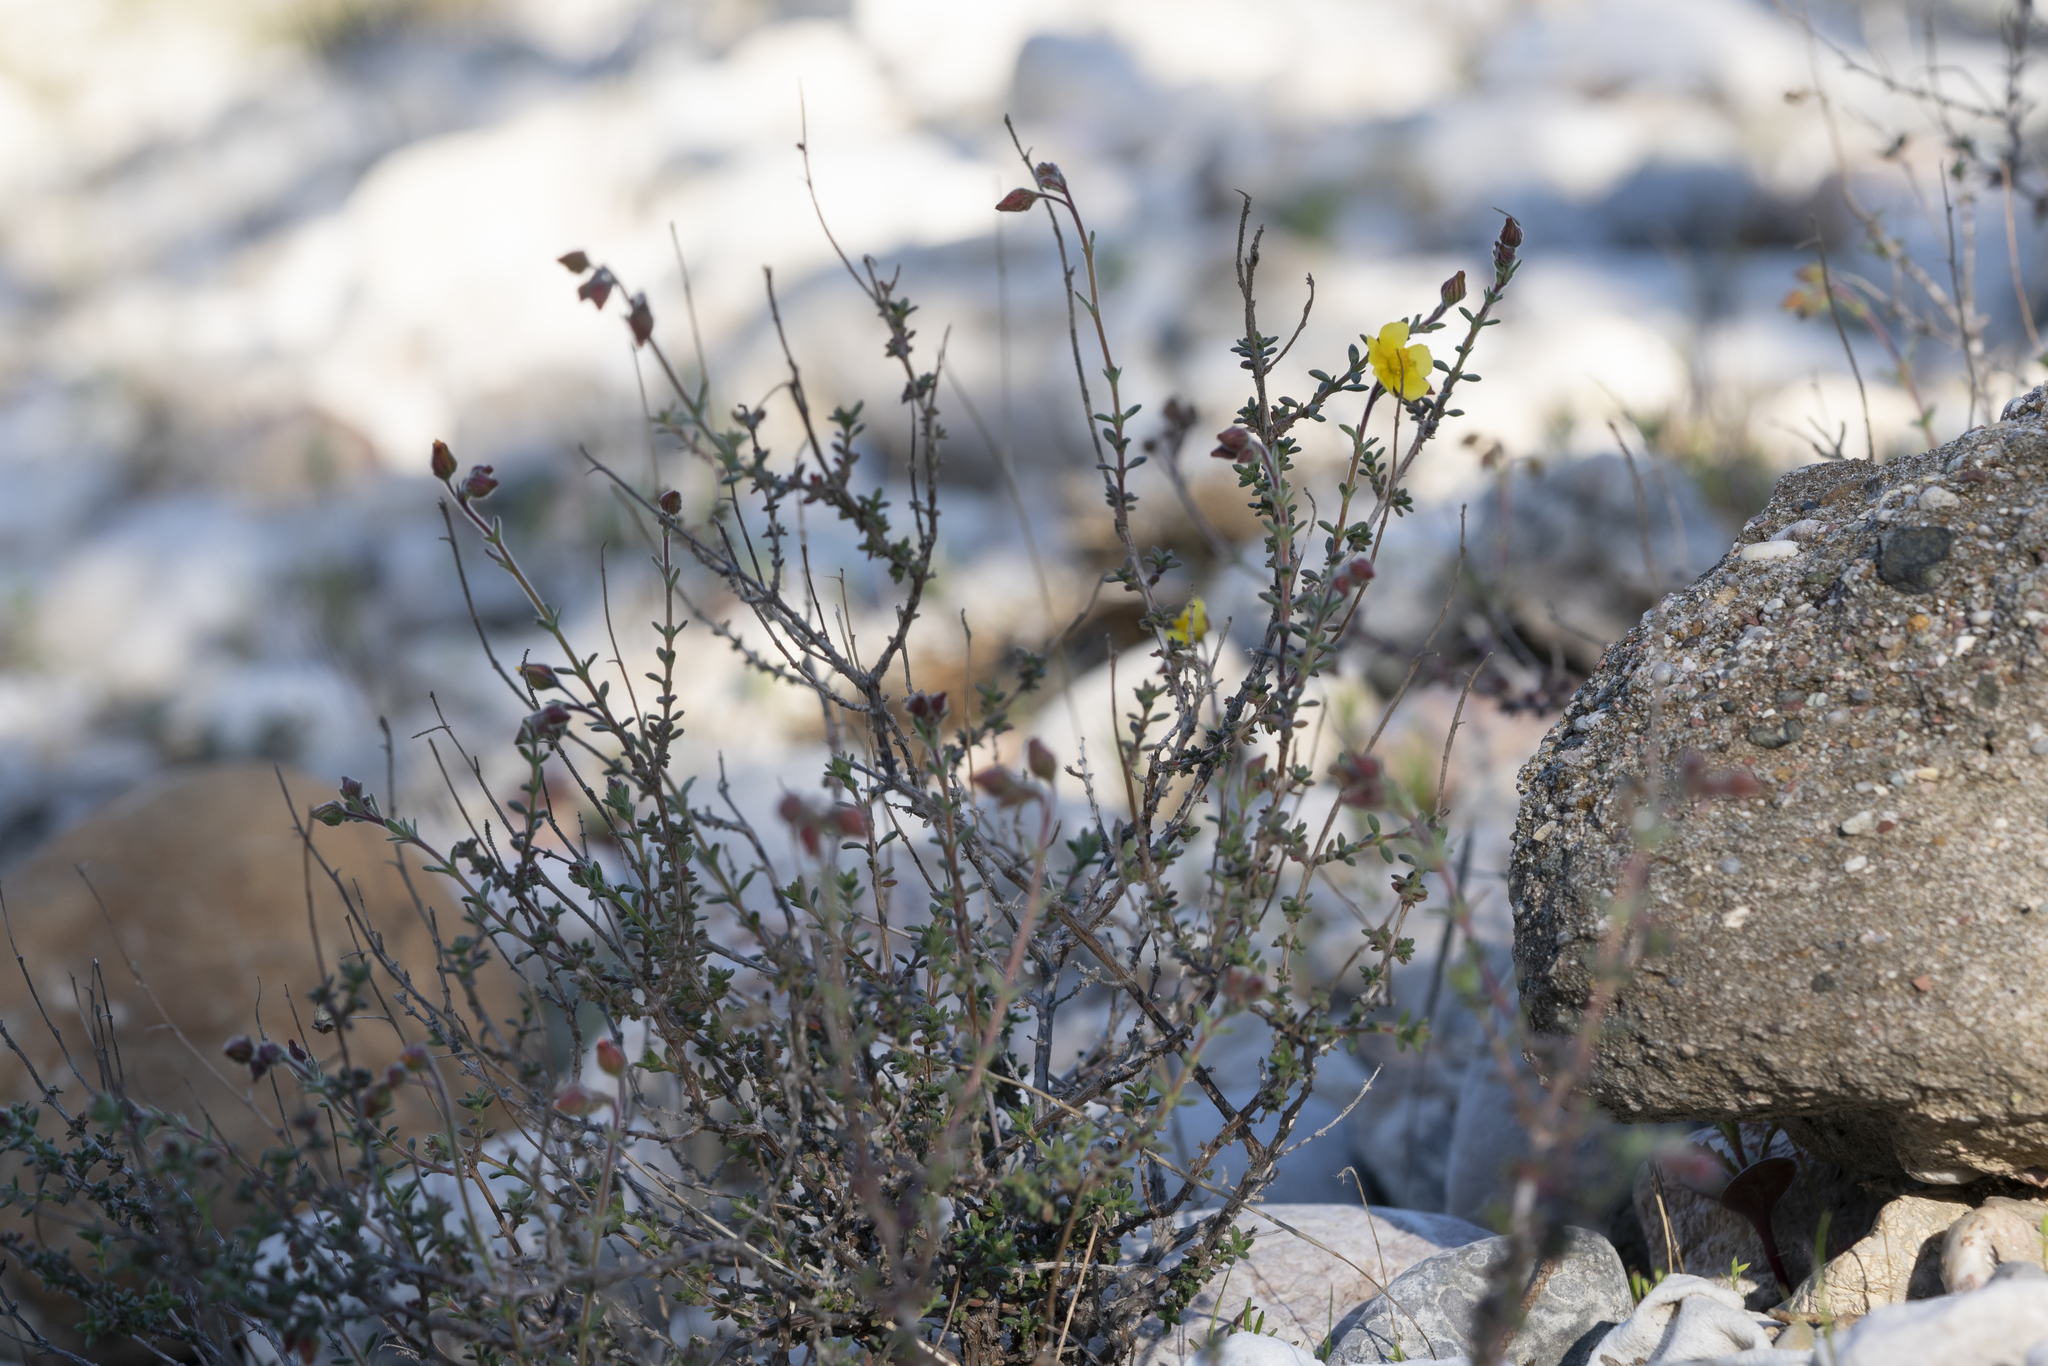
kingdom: Plantae
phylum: Tracheophyta
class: Magnoliopsida
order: Malvales
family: Cistaceae
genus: Fumana
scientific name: Fumana thymifolia
